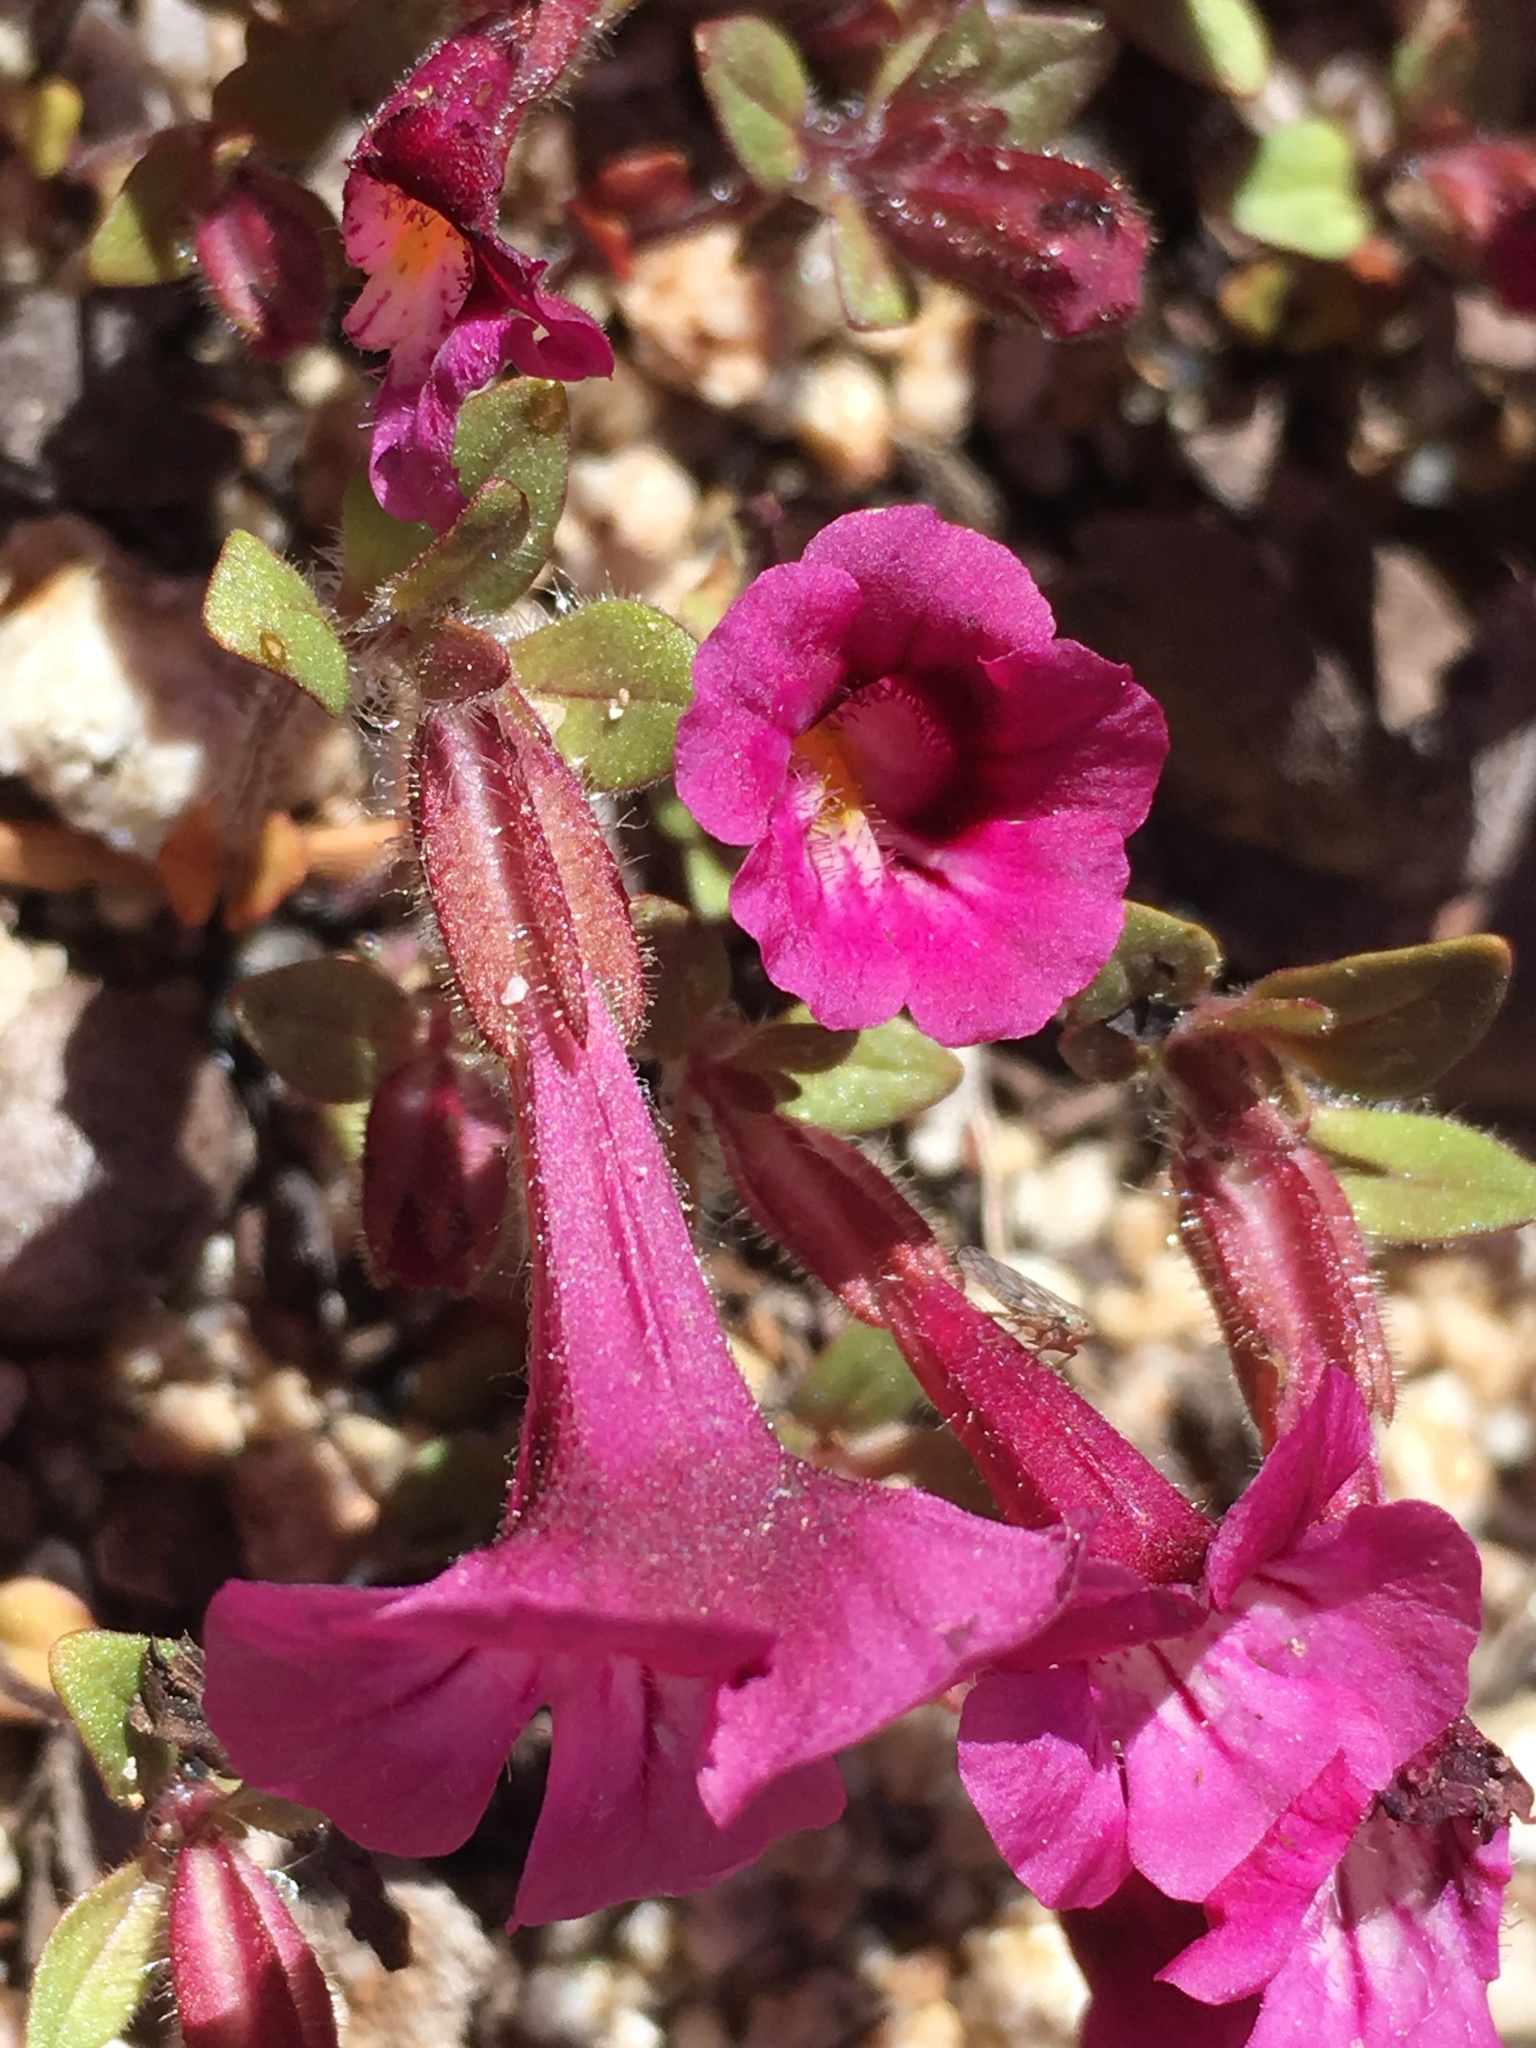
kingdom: Plantae
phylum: Tracheophyta
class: Magnoliopsida
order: Lamiales
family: Phrymaceae
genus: Diplacus
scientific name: Diplacus constrictus
